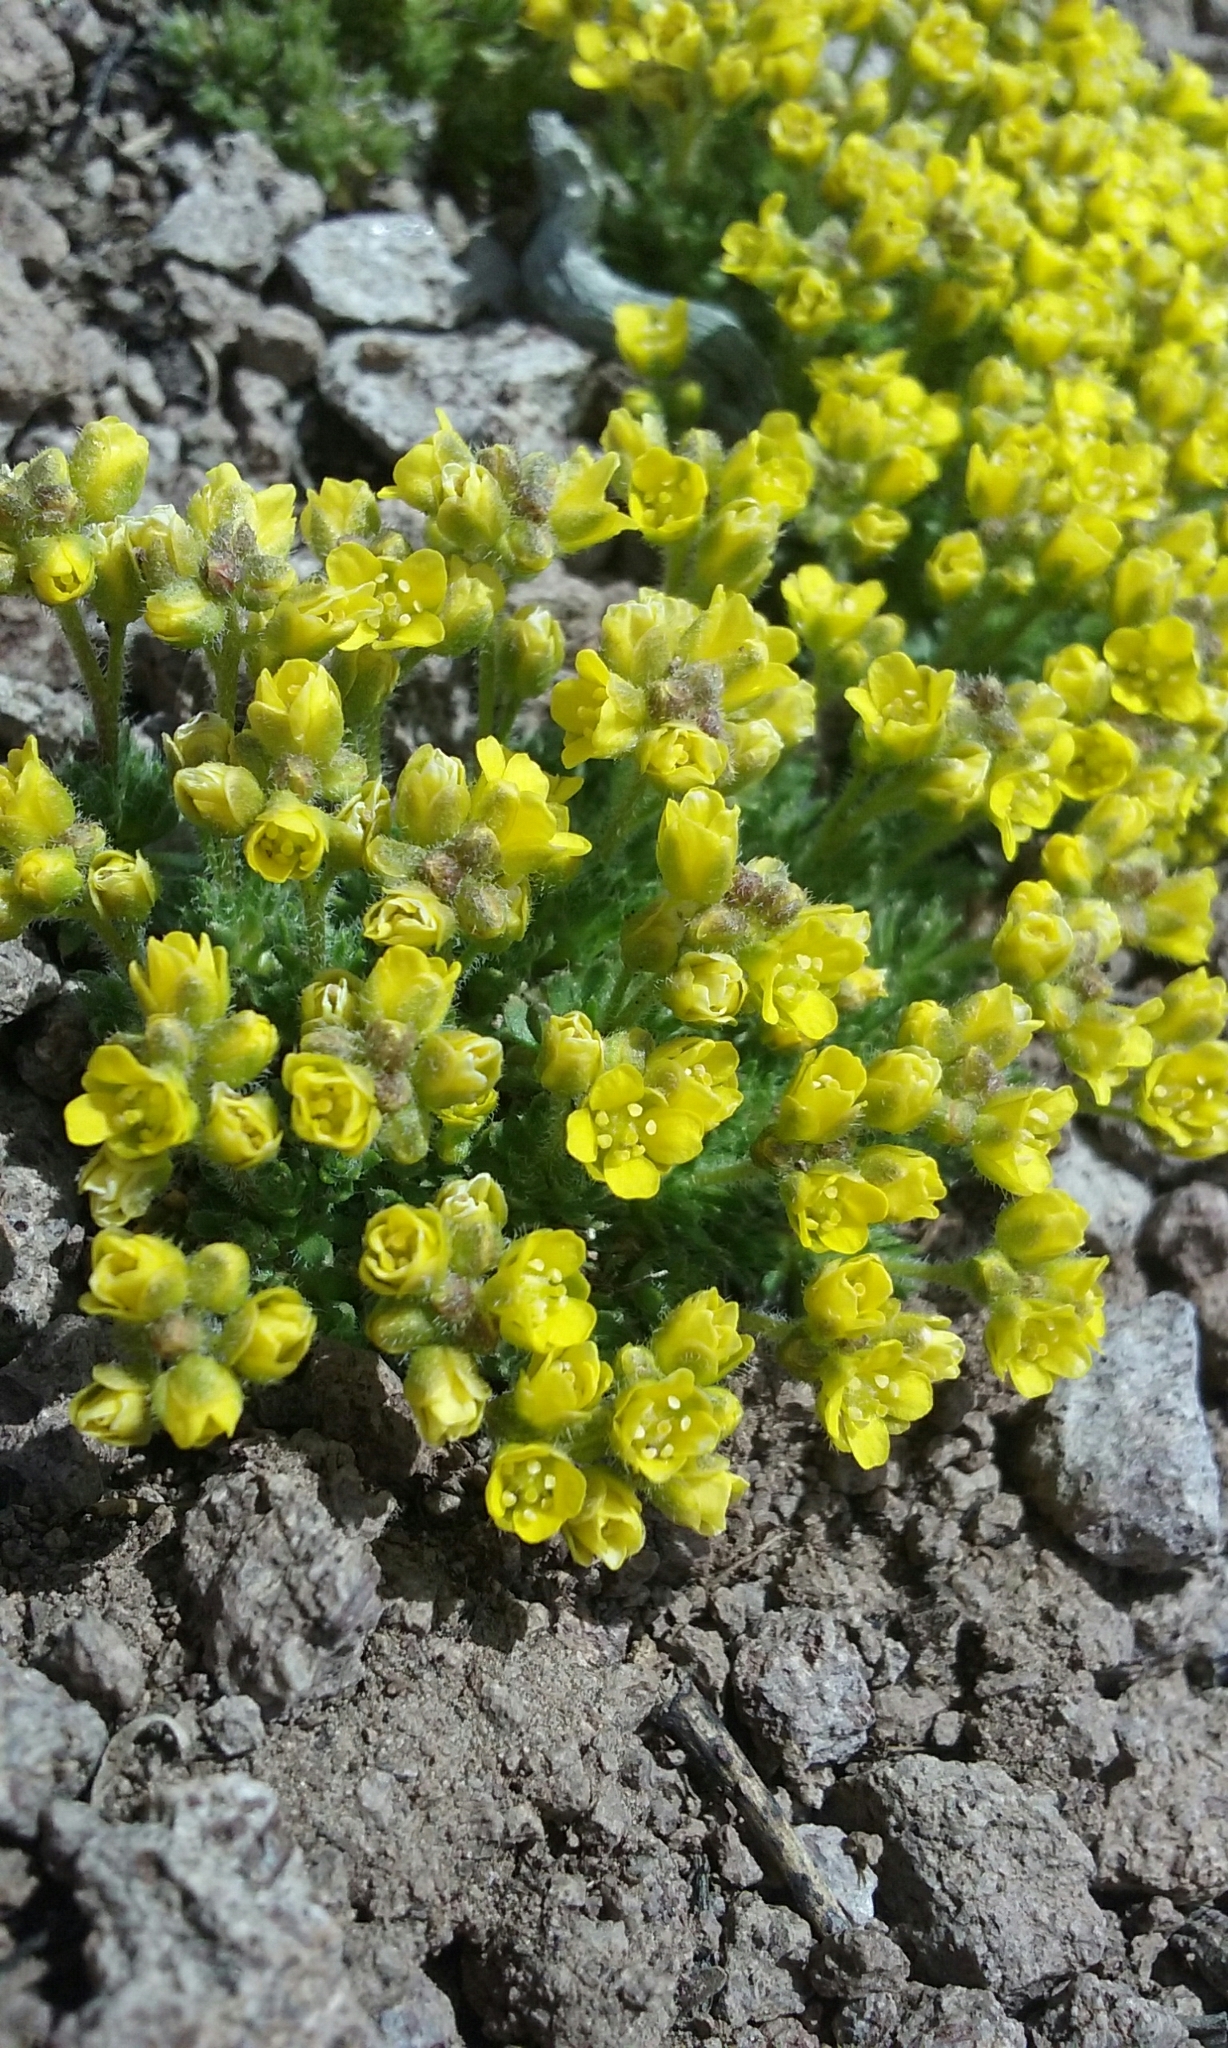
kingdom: Plantae
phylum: Tracheophyta
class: Magnoliopsida
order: Brassicales
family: Brassicaceae
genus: Draba
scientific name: Draba densifolia
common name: Nuttall's draba
